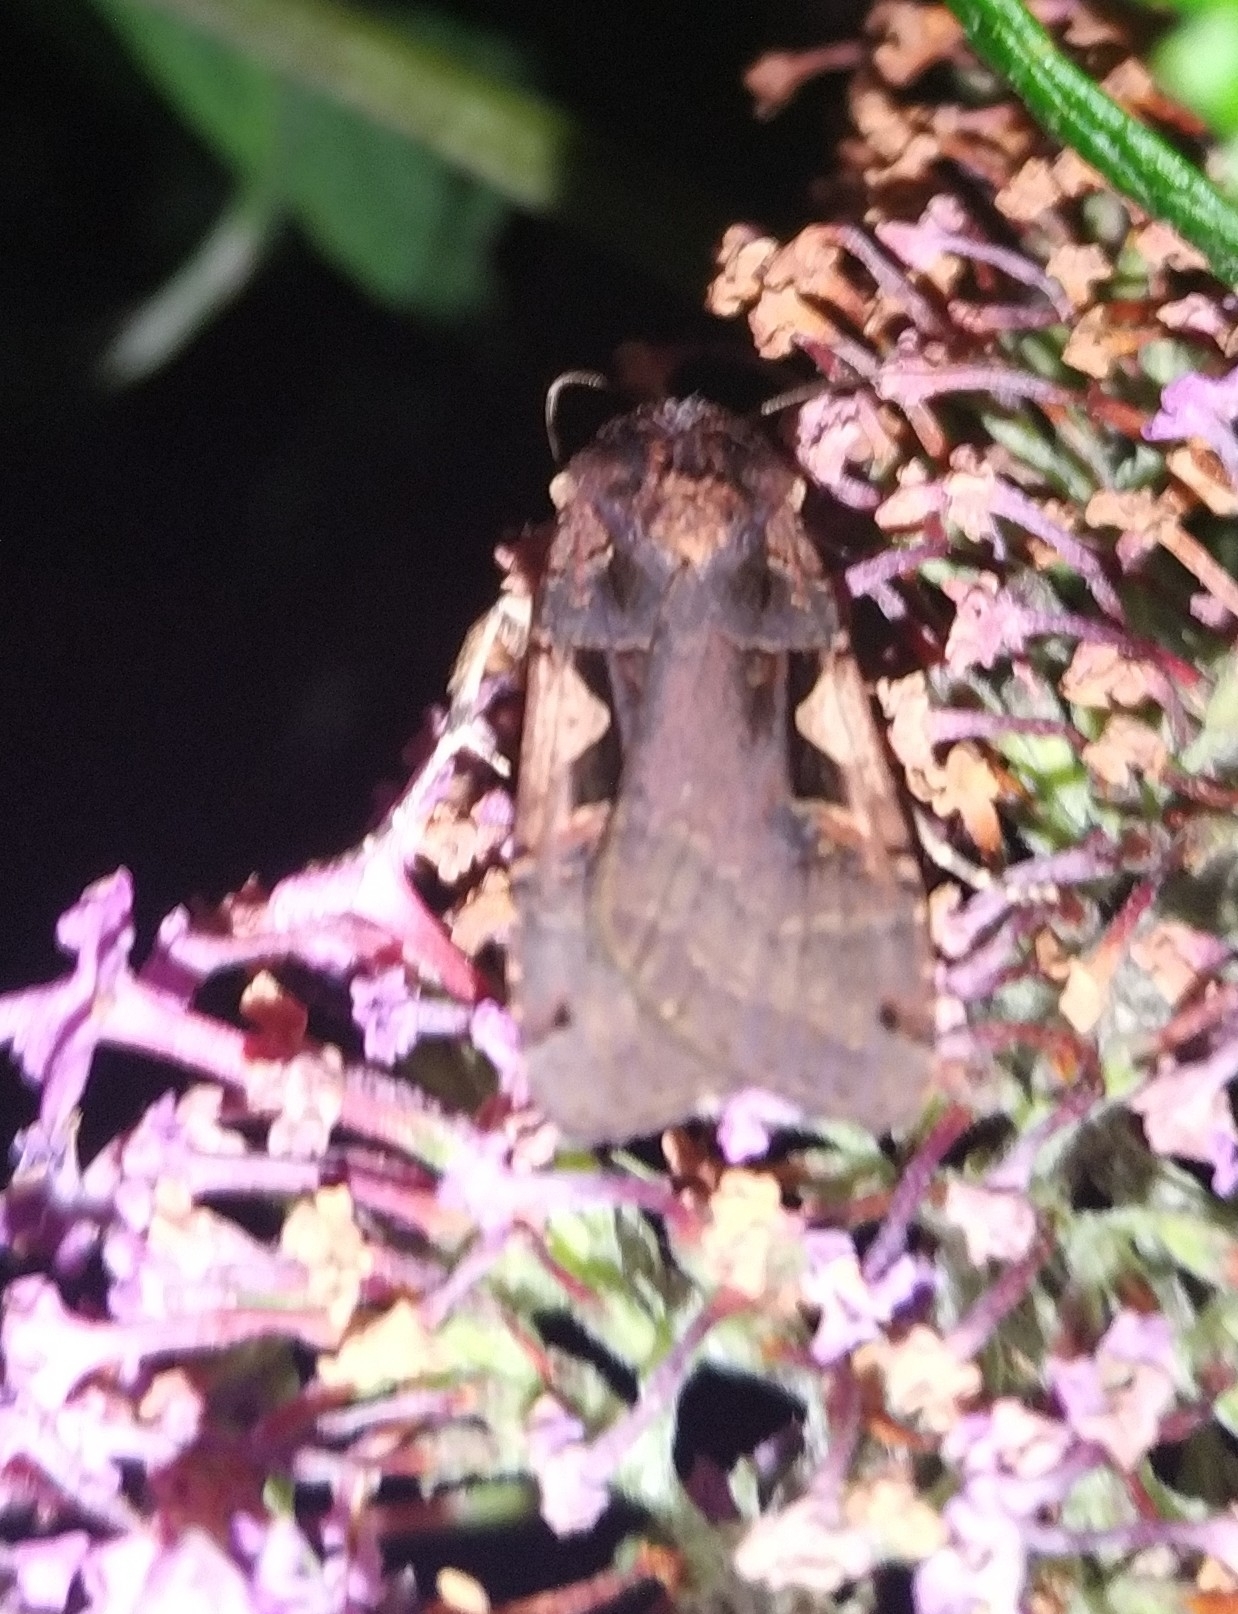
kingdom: Animalia
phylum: Arthropoda
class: Insecta
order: Lepidoptera
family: Noctuidae
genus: Xestia
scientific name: Xestia c-nigrum
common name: Setaceous hebrew character
